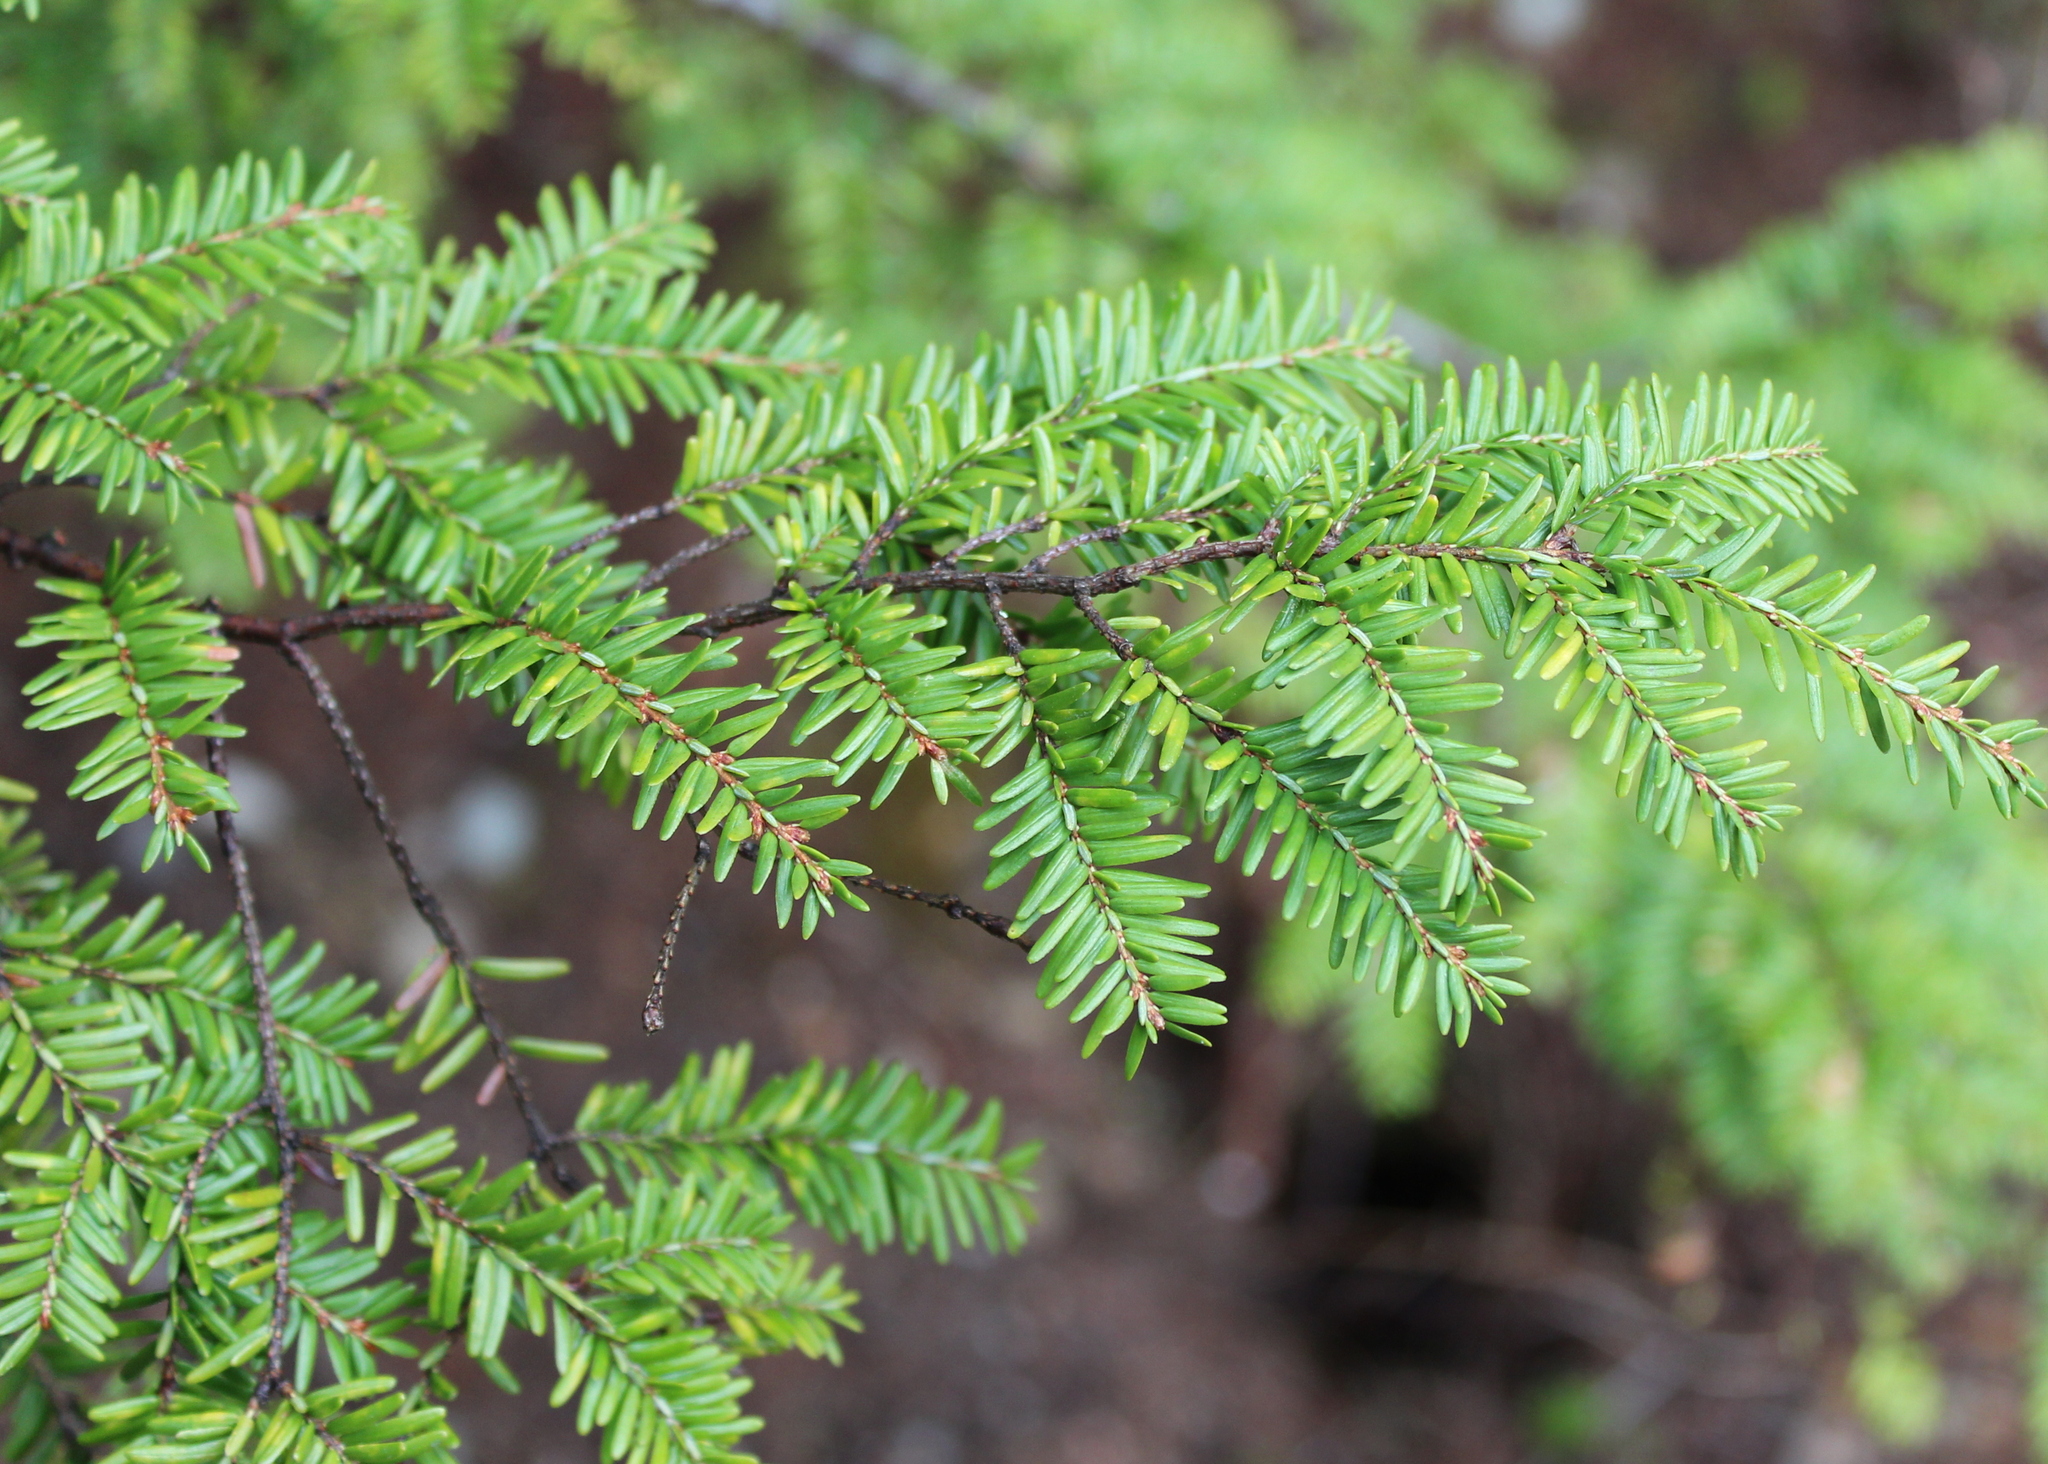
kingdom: Plantae
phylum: Tracheophyta
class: Pinopsida
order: Pinales
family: Pinaceae
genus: Tsuga
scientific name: Tsuga canadensis
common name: Eastern hemlock
